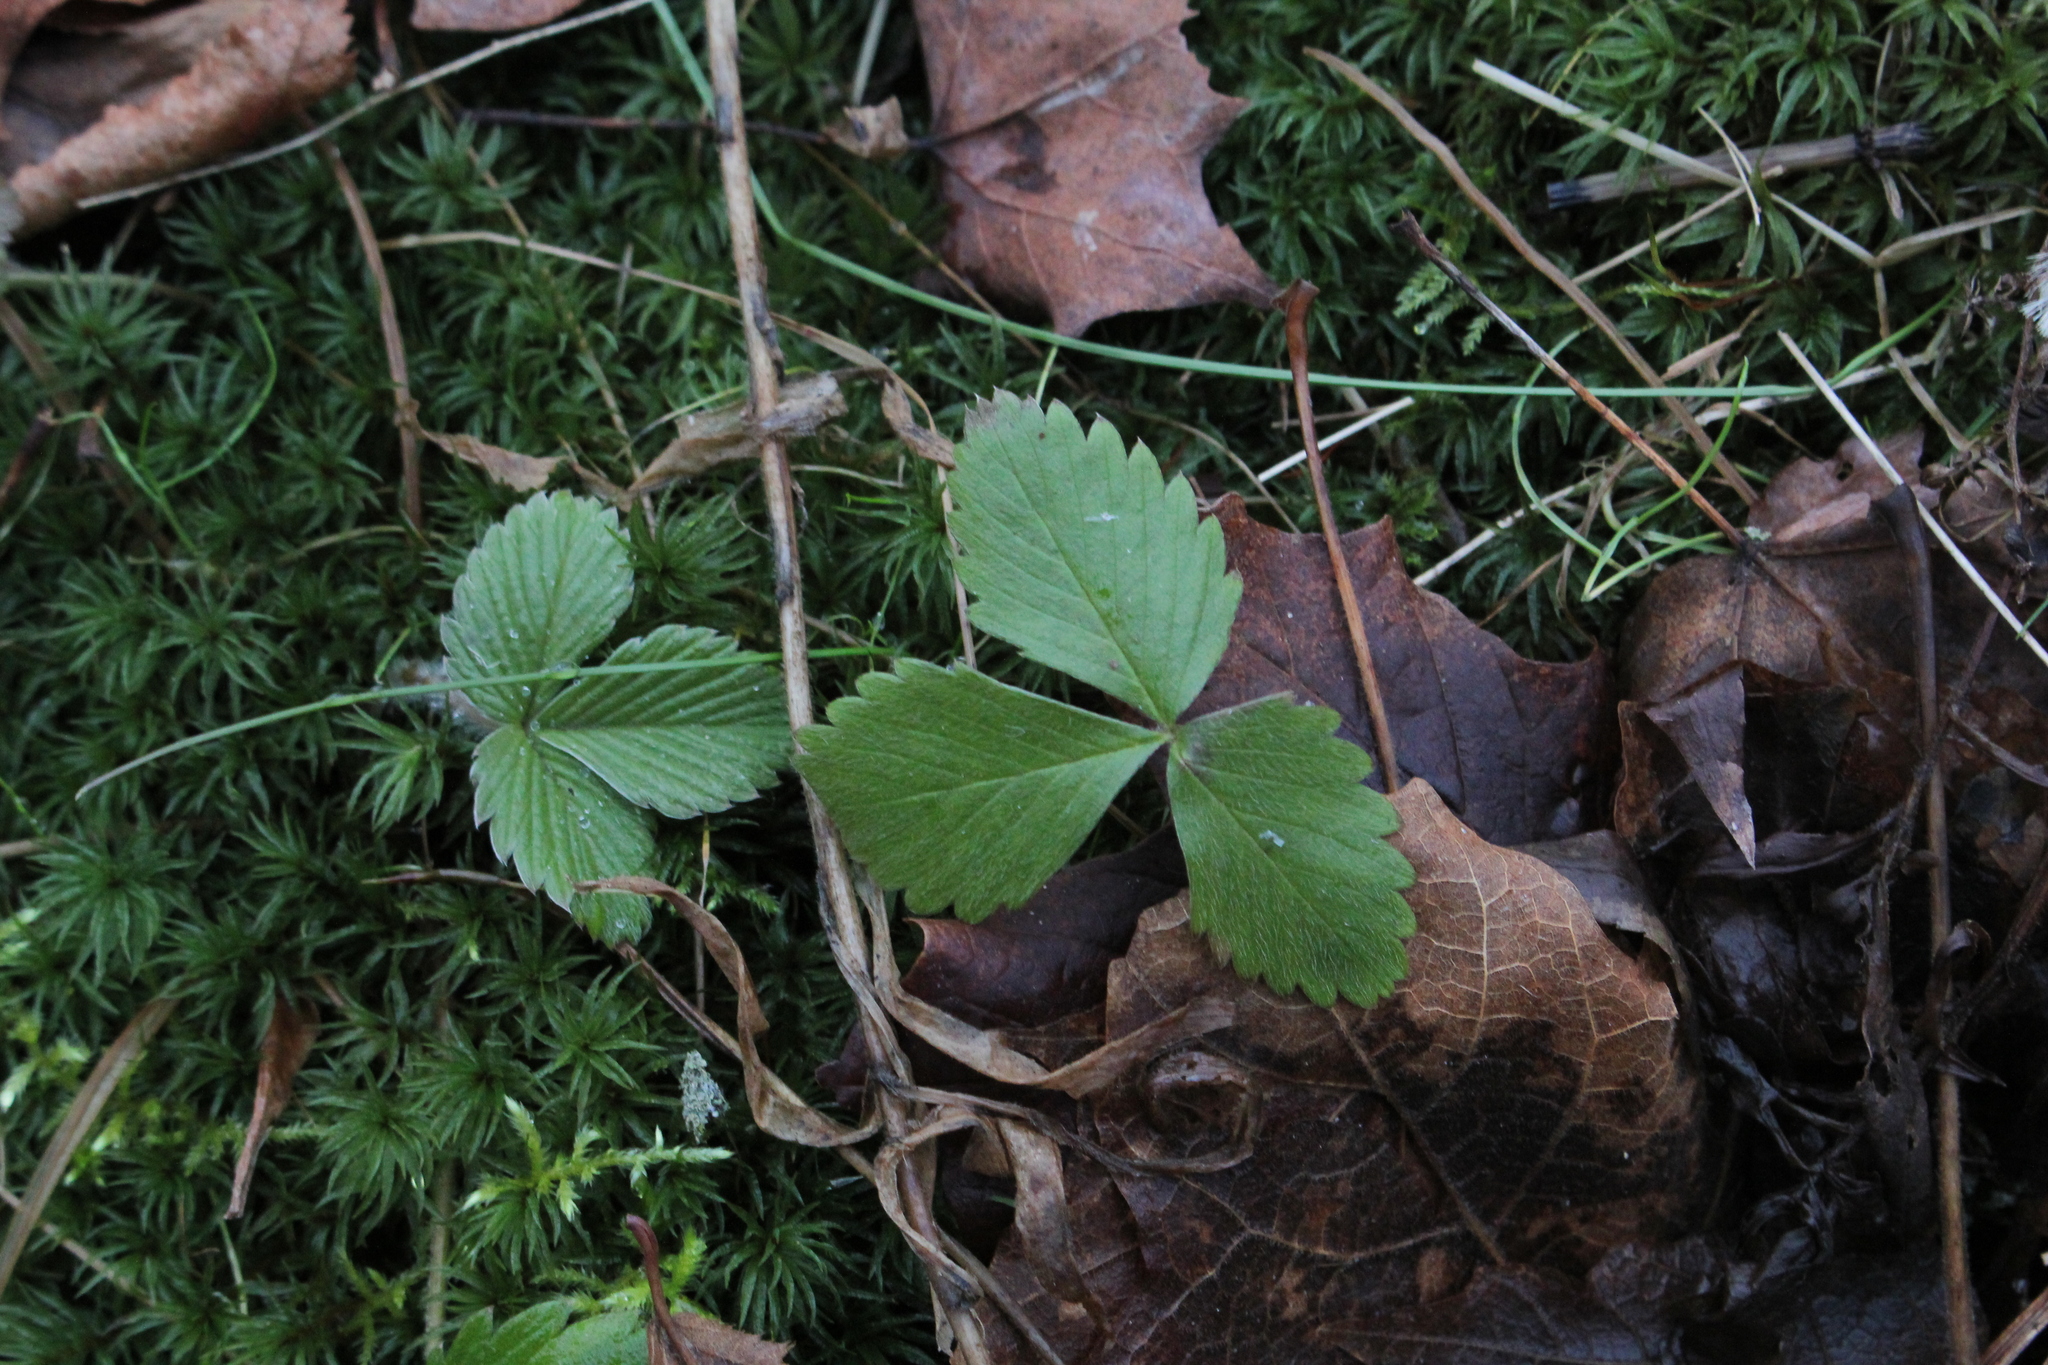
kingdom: Plantae
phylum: Tracheophyta
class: Magnoliopsida
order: Rosales
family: Rosaceae
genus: Fragaria
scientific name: Fragaria vesca
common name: Wild strawberry
